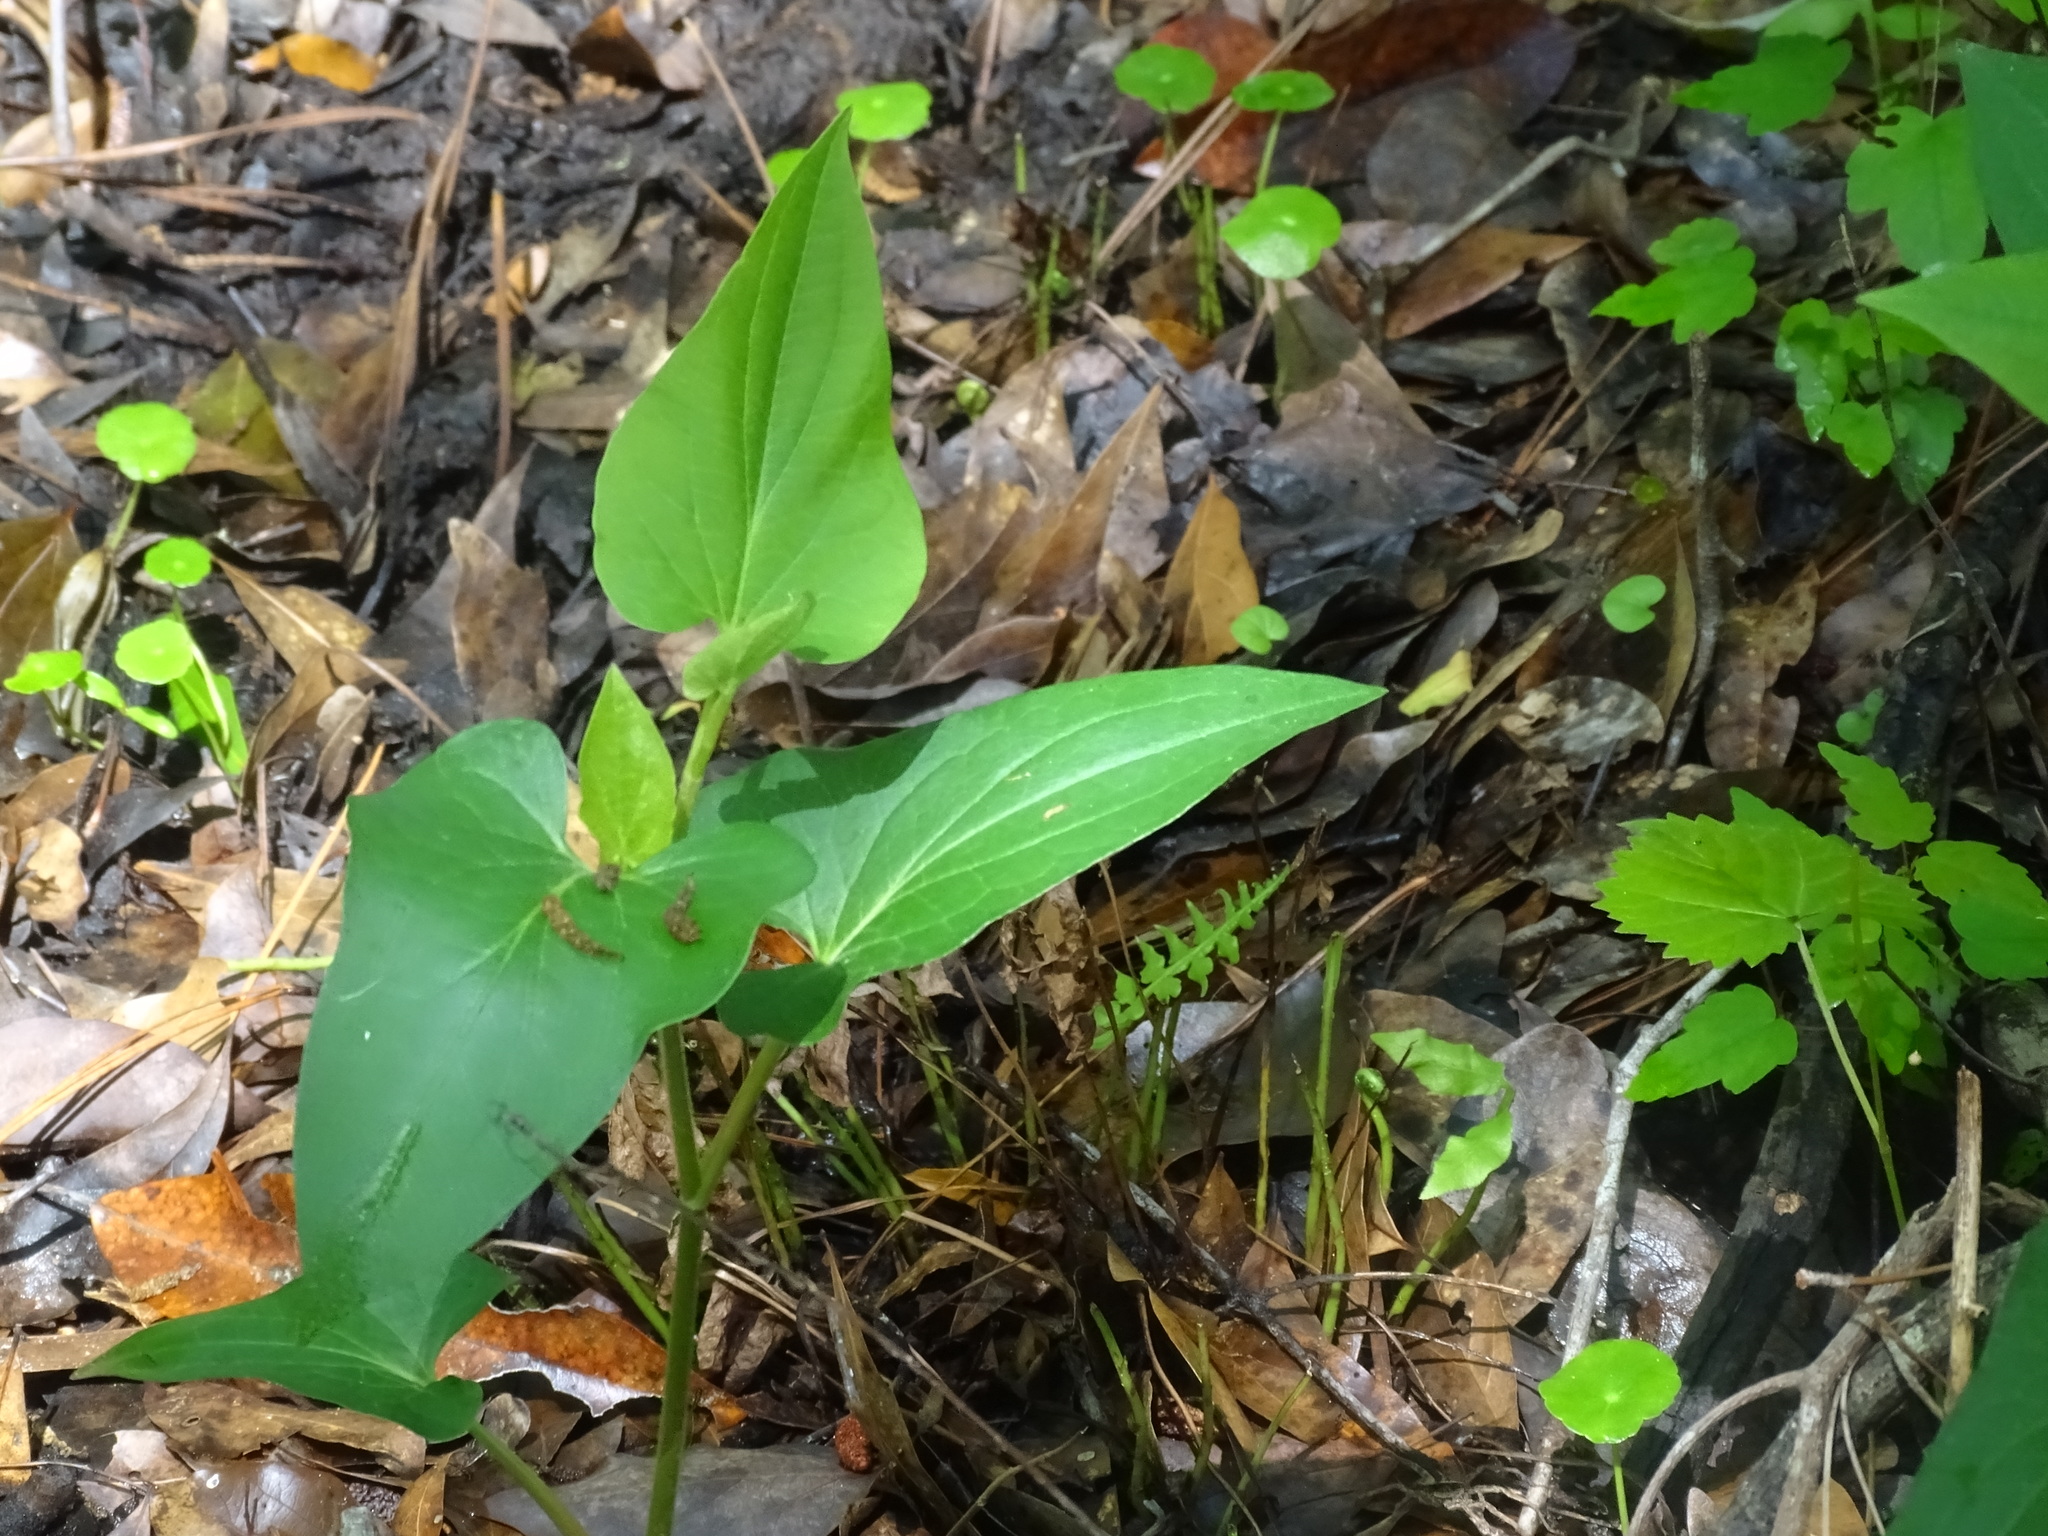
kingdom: Plantae
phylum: Tracheophyta
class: Magnoliopsida
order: Piperales
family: Saururaceae
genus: Saururus
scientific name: Saururus cernuus
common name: Lizard's-tail
